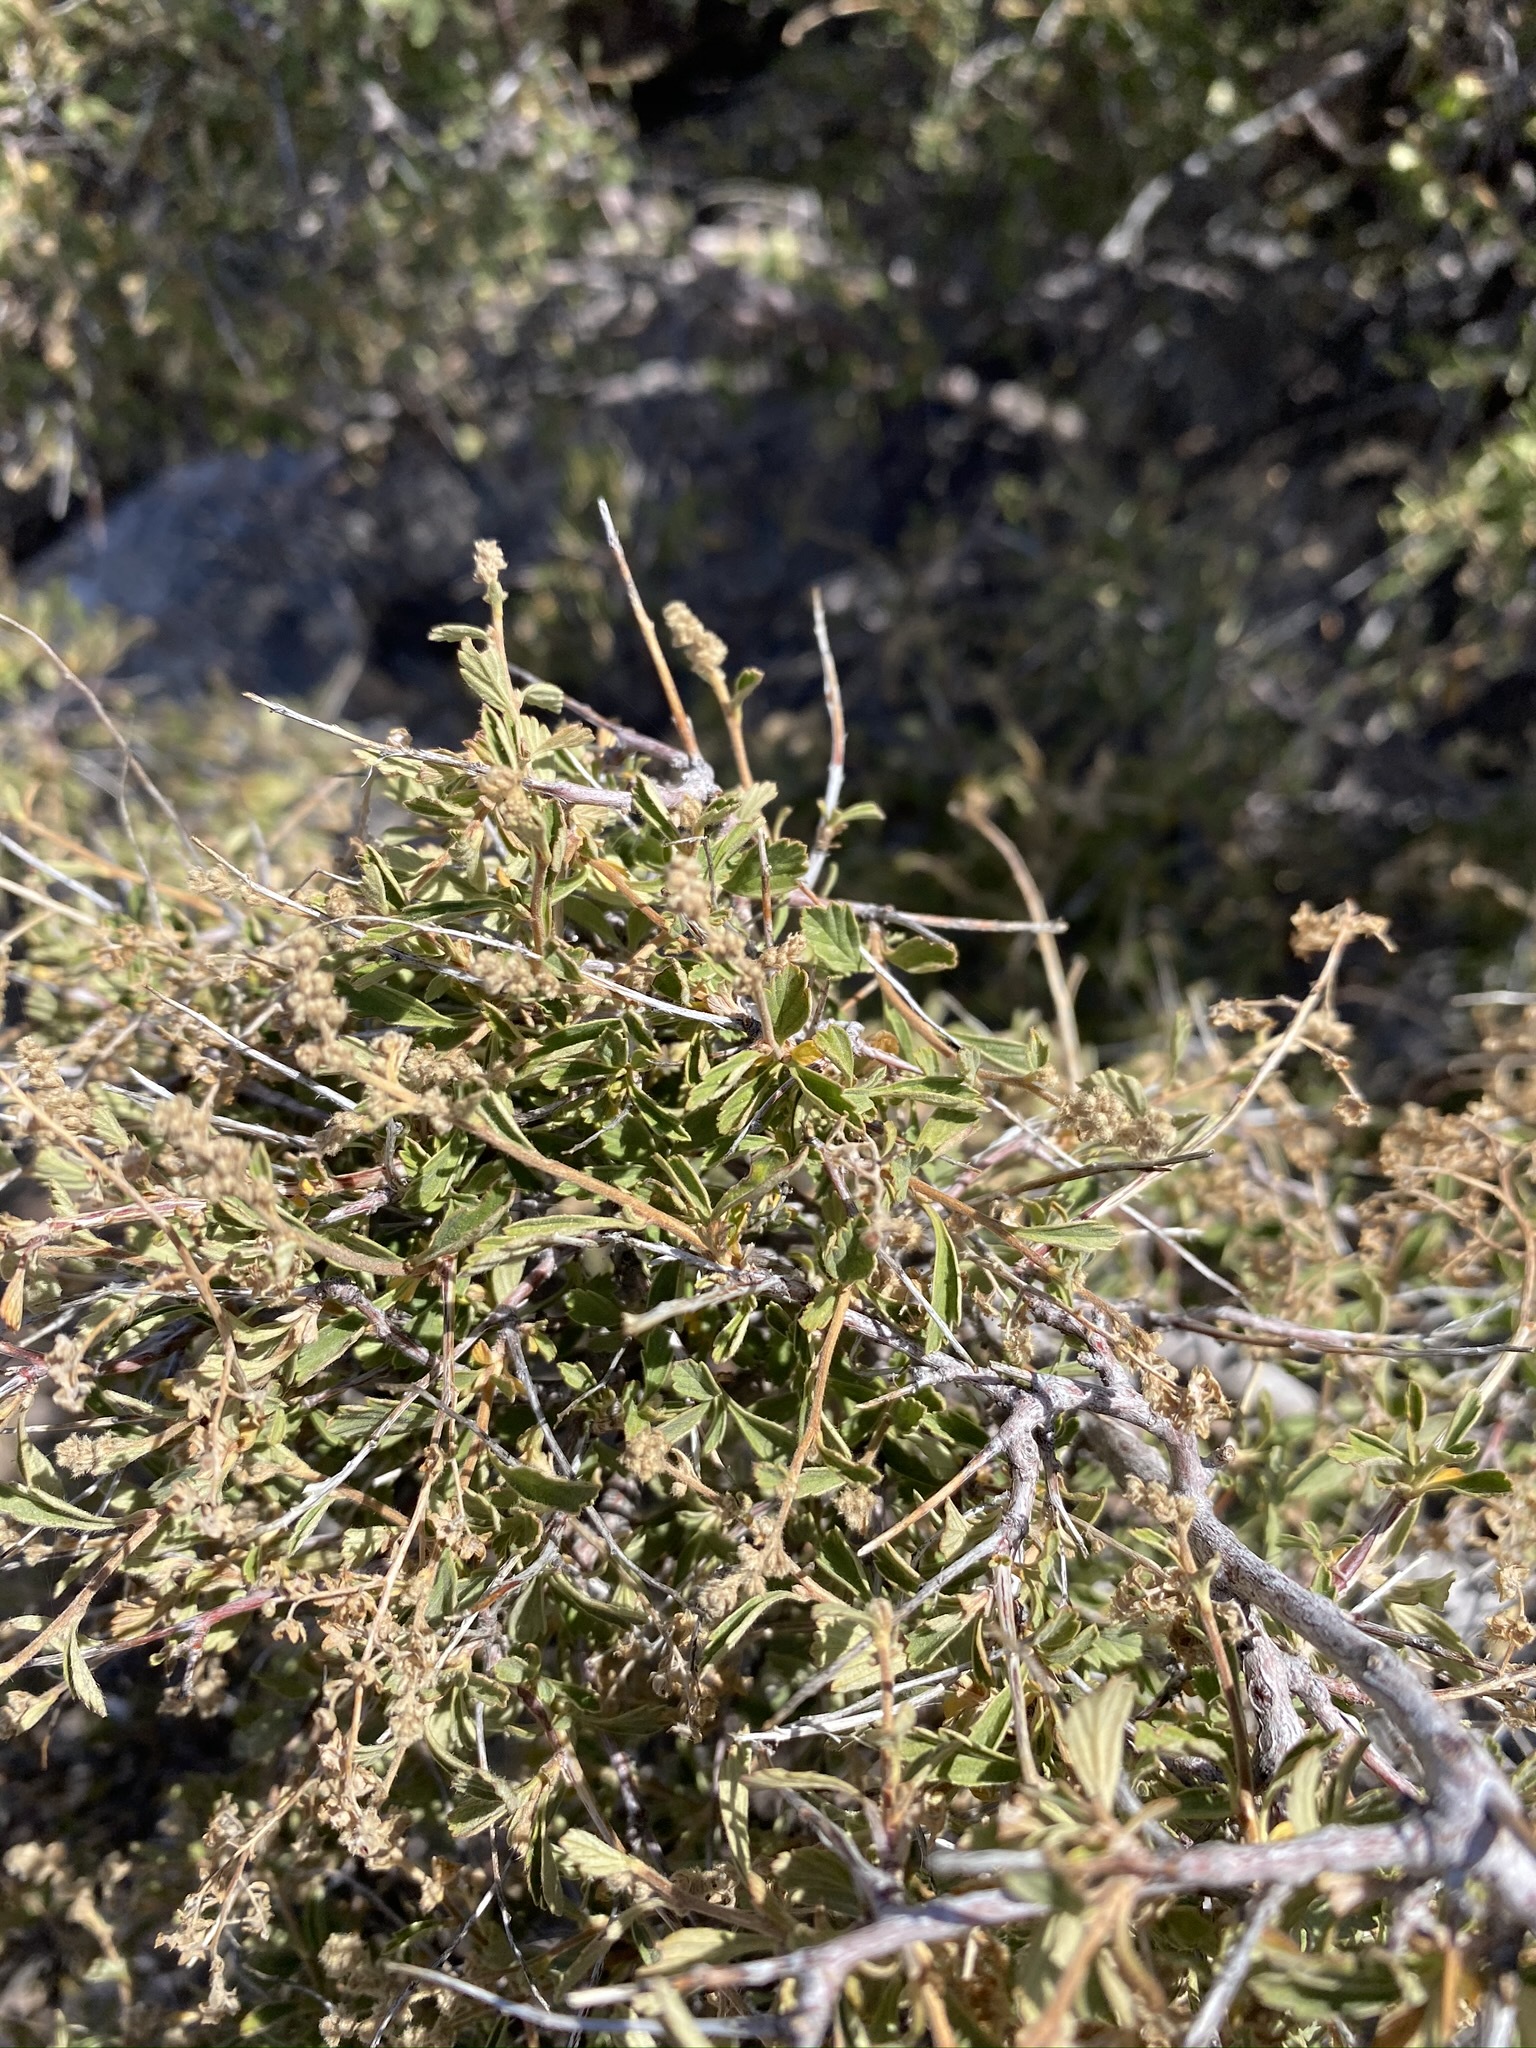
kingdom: Plantae
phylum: Tracheophyta
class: Magnoliopsida
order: Rosales
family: Rosaceae
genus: Holodiscus
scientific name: Holodiscus discolor
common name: Oceanspray
